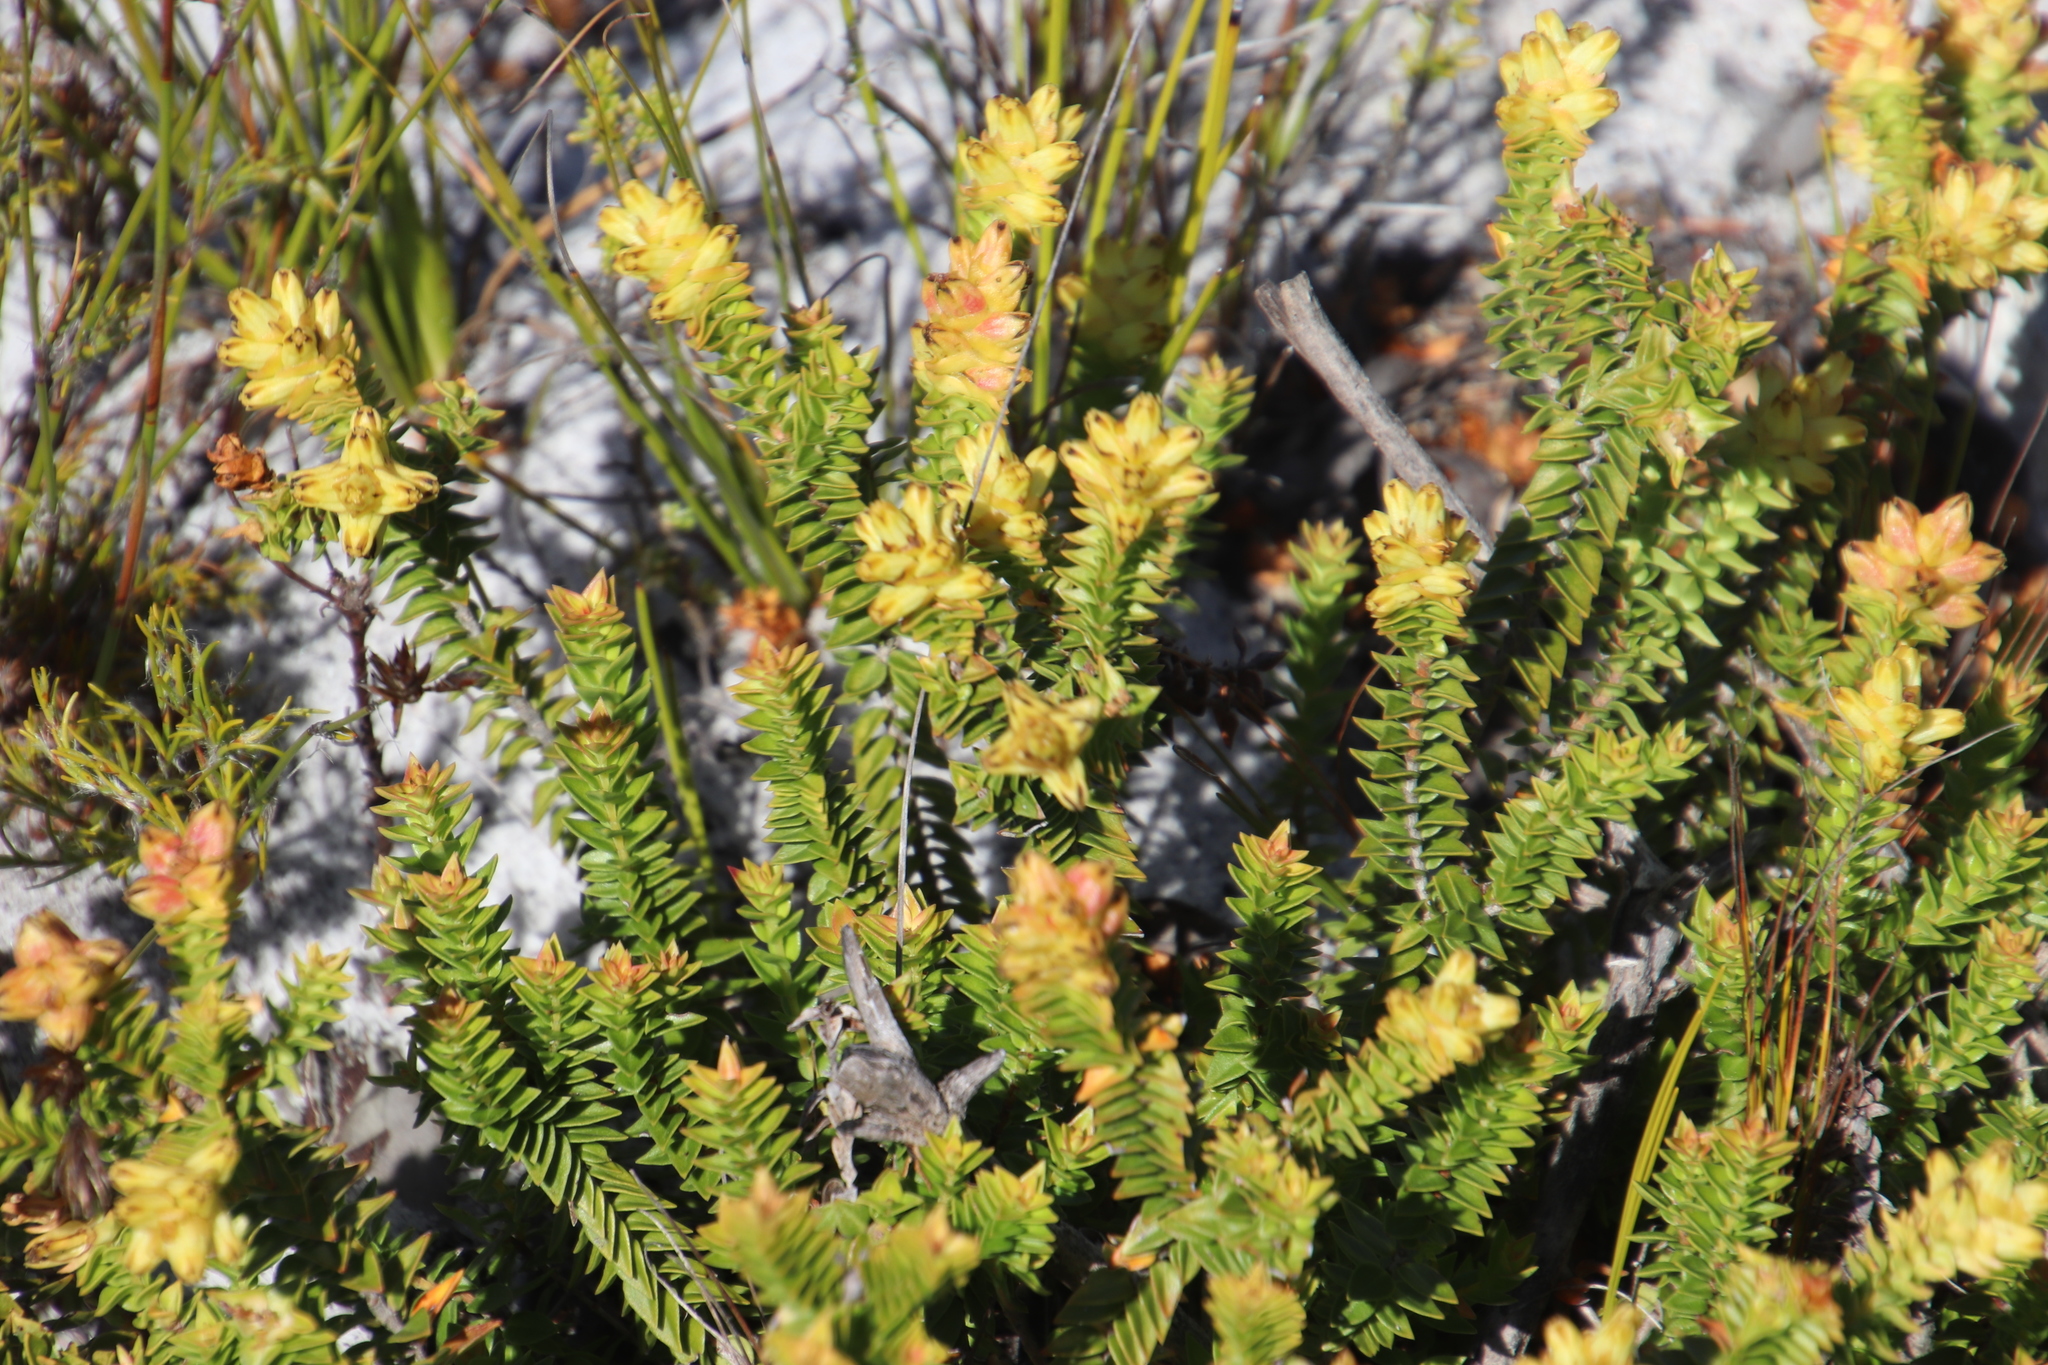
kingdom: Plantae
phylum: Tracheophyta
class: Magnoliopsida
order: Myrtales
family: Penaeaceae
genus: Penaea
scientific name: Penaea mucronata
